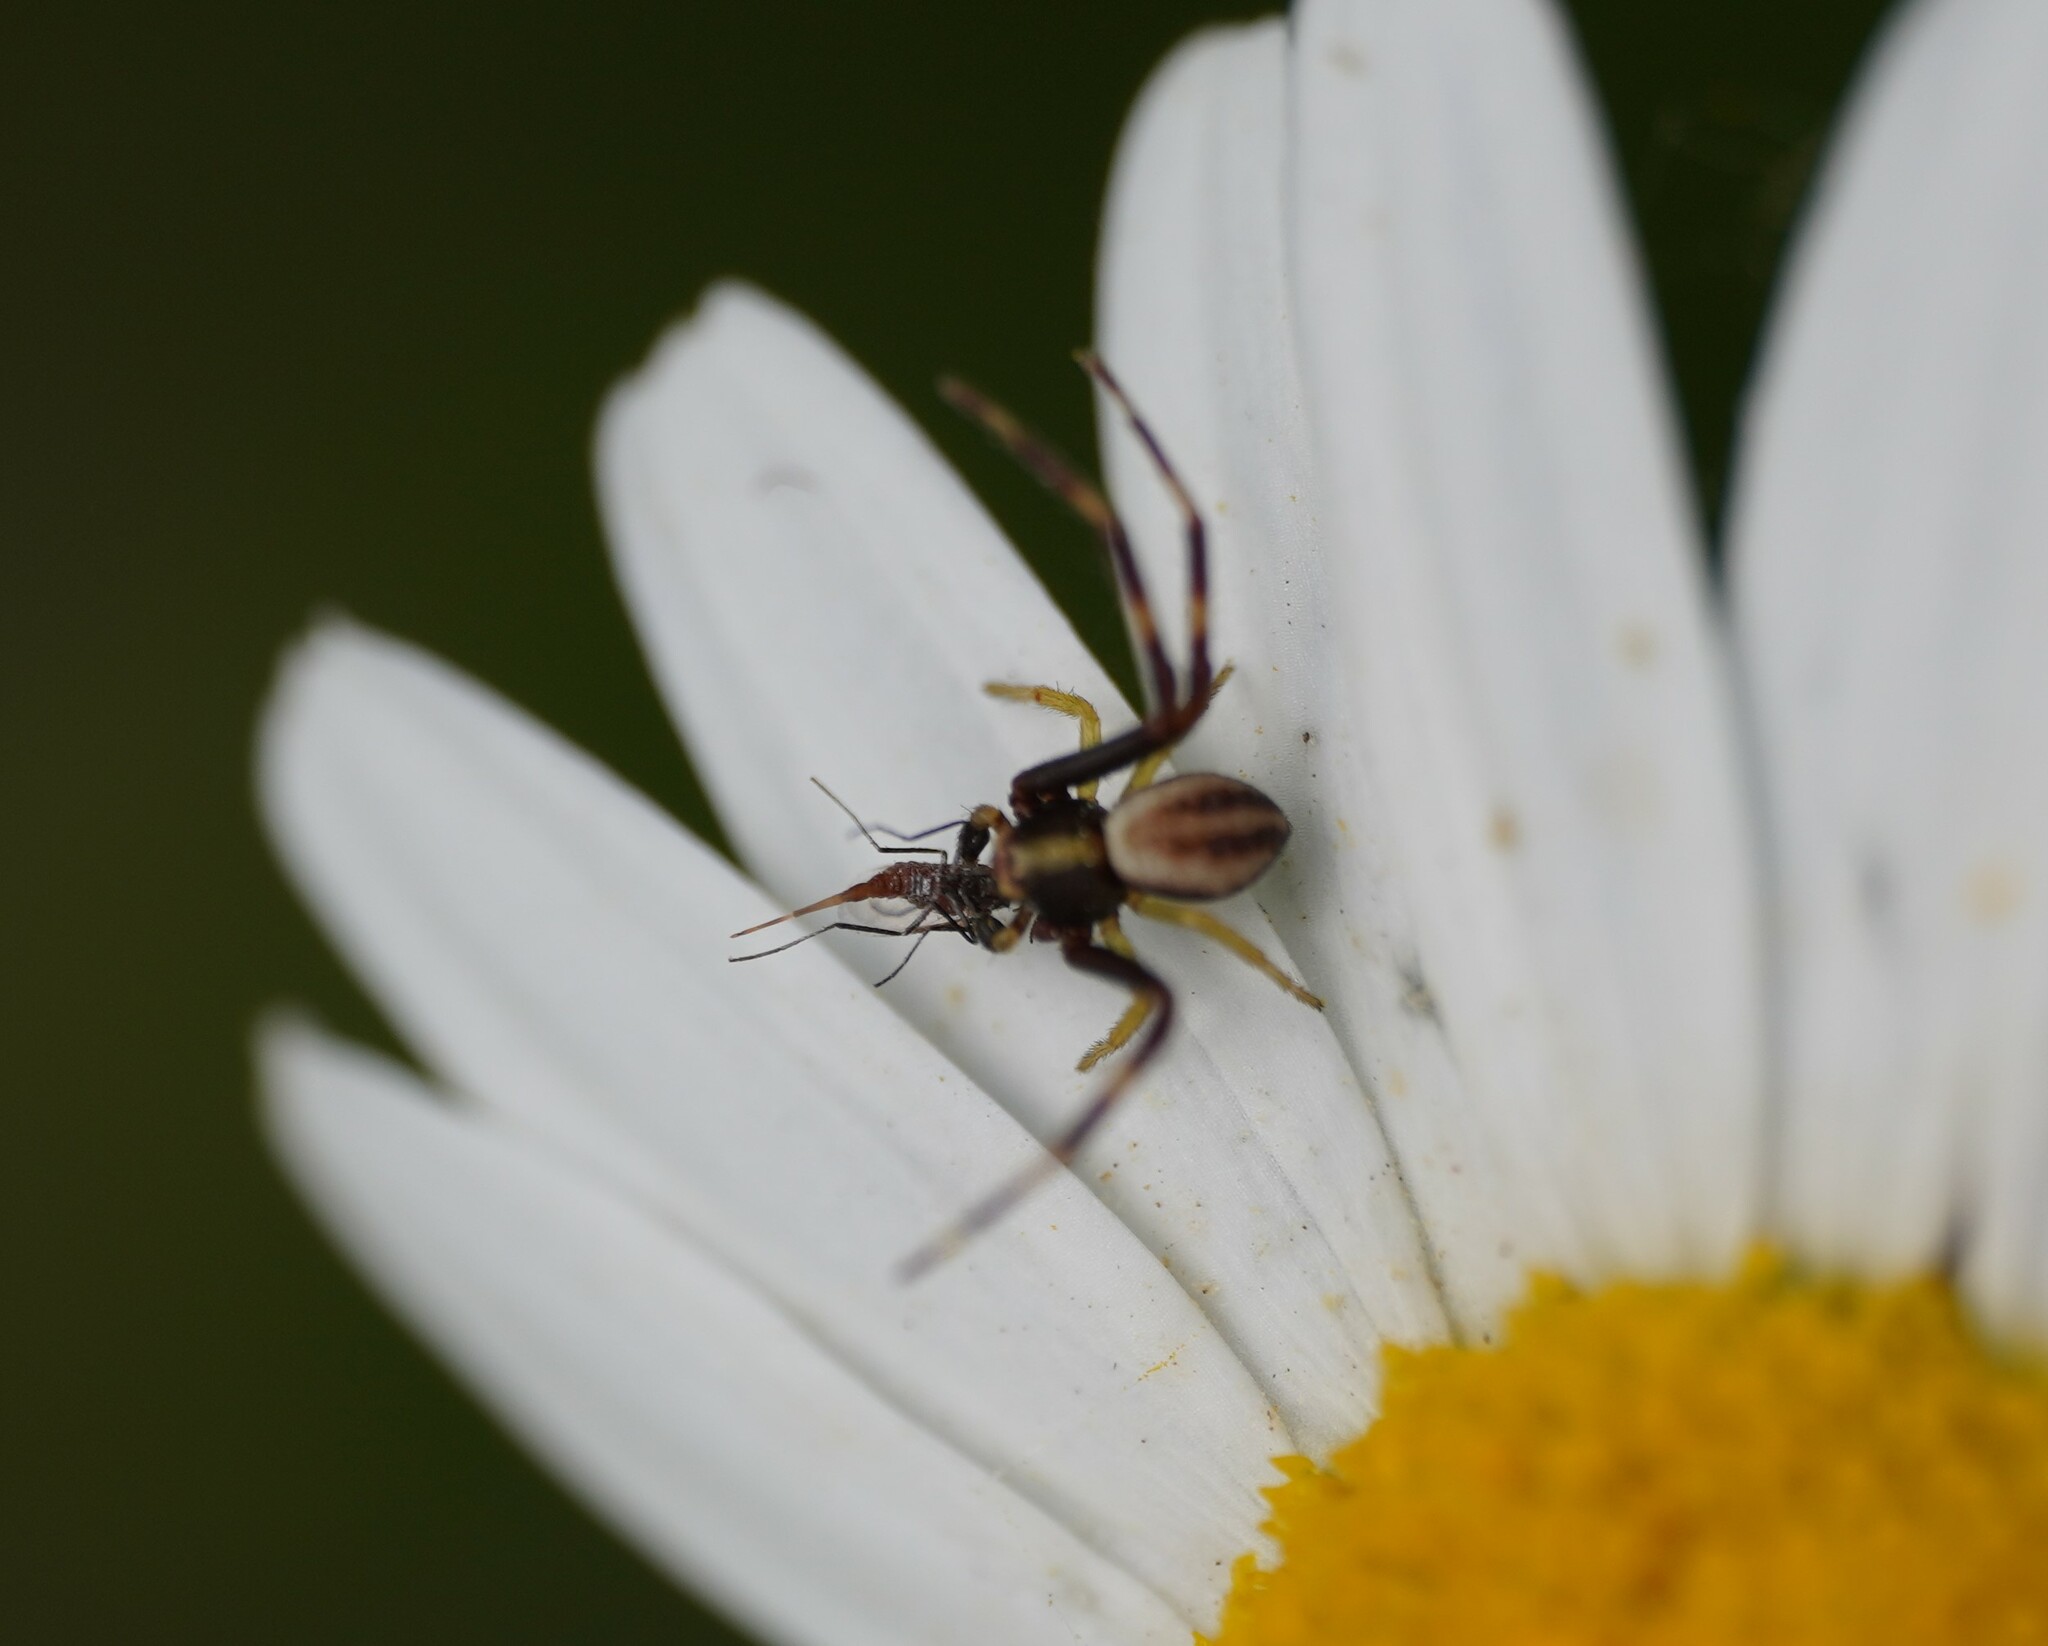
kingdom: Animalia
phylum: Arthropoda
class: Arachnida
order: Araneae
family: Thomisidae
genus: Misumena
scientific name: Misumena vatia
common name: Goldenrod crab spider
